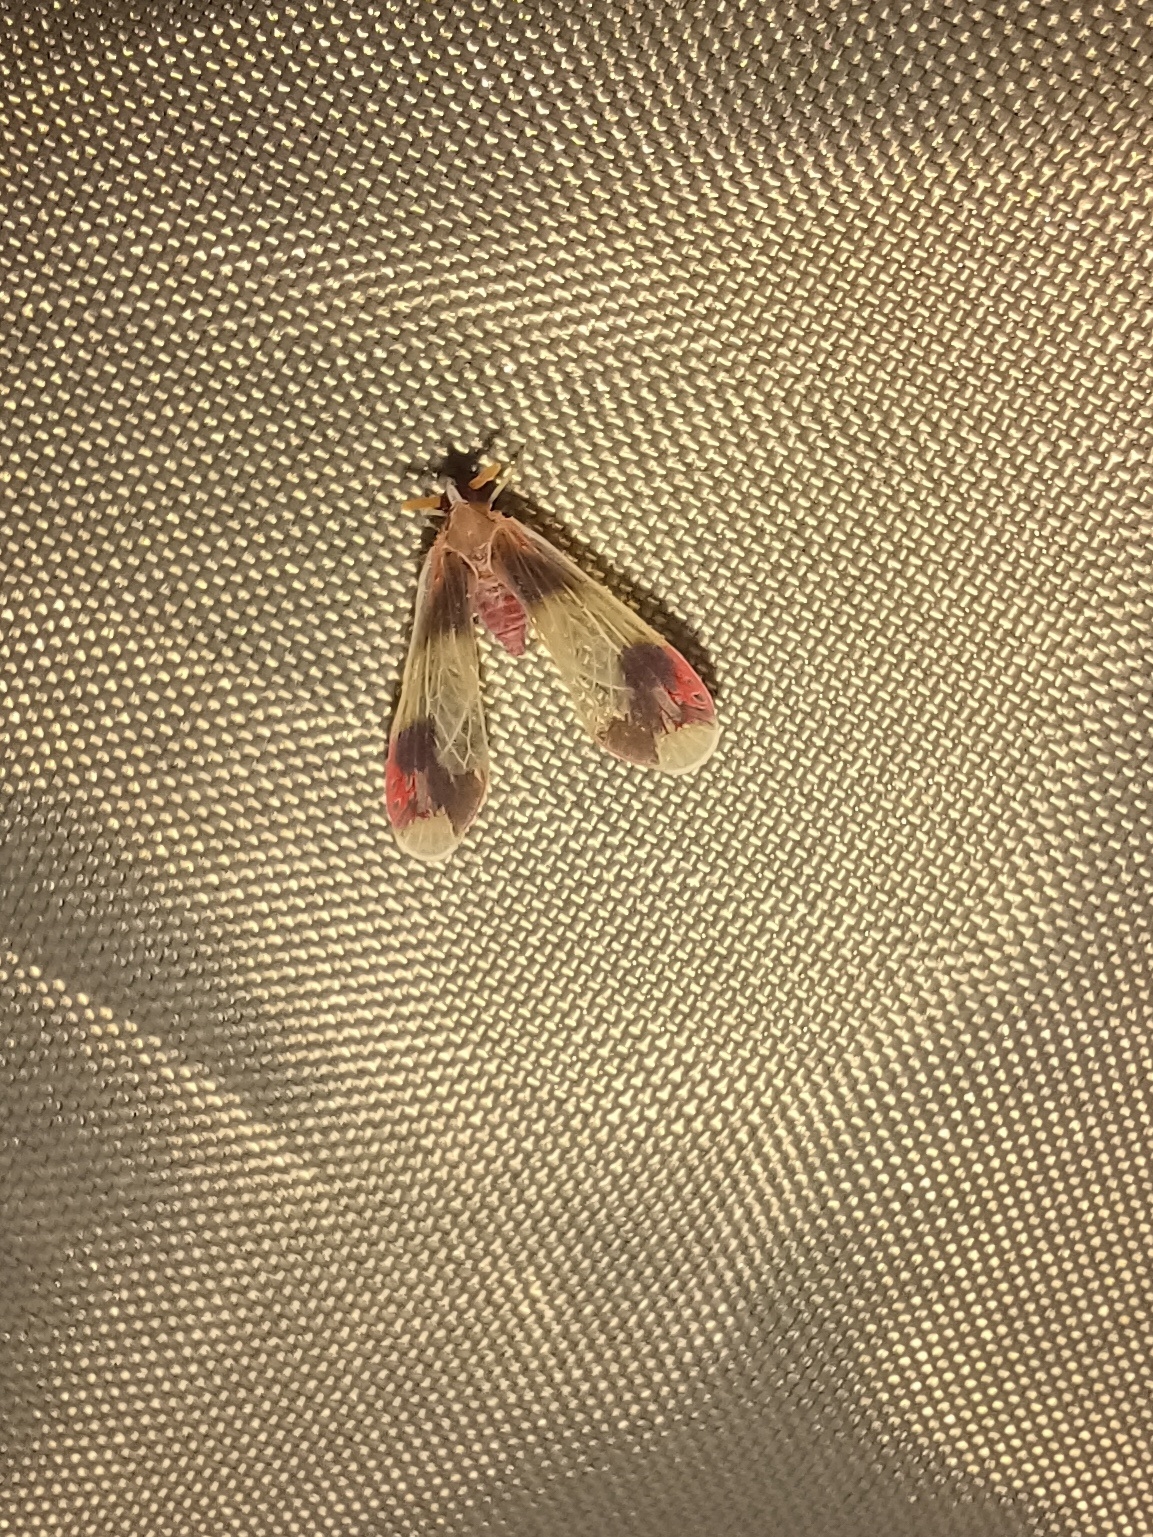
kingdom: Animalia
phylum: Arthropoda
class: Insecta
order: Hemiptera
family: Derbidae
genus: Anotia
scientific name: Anotia uhleri
